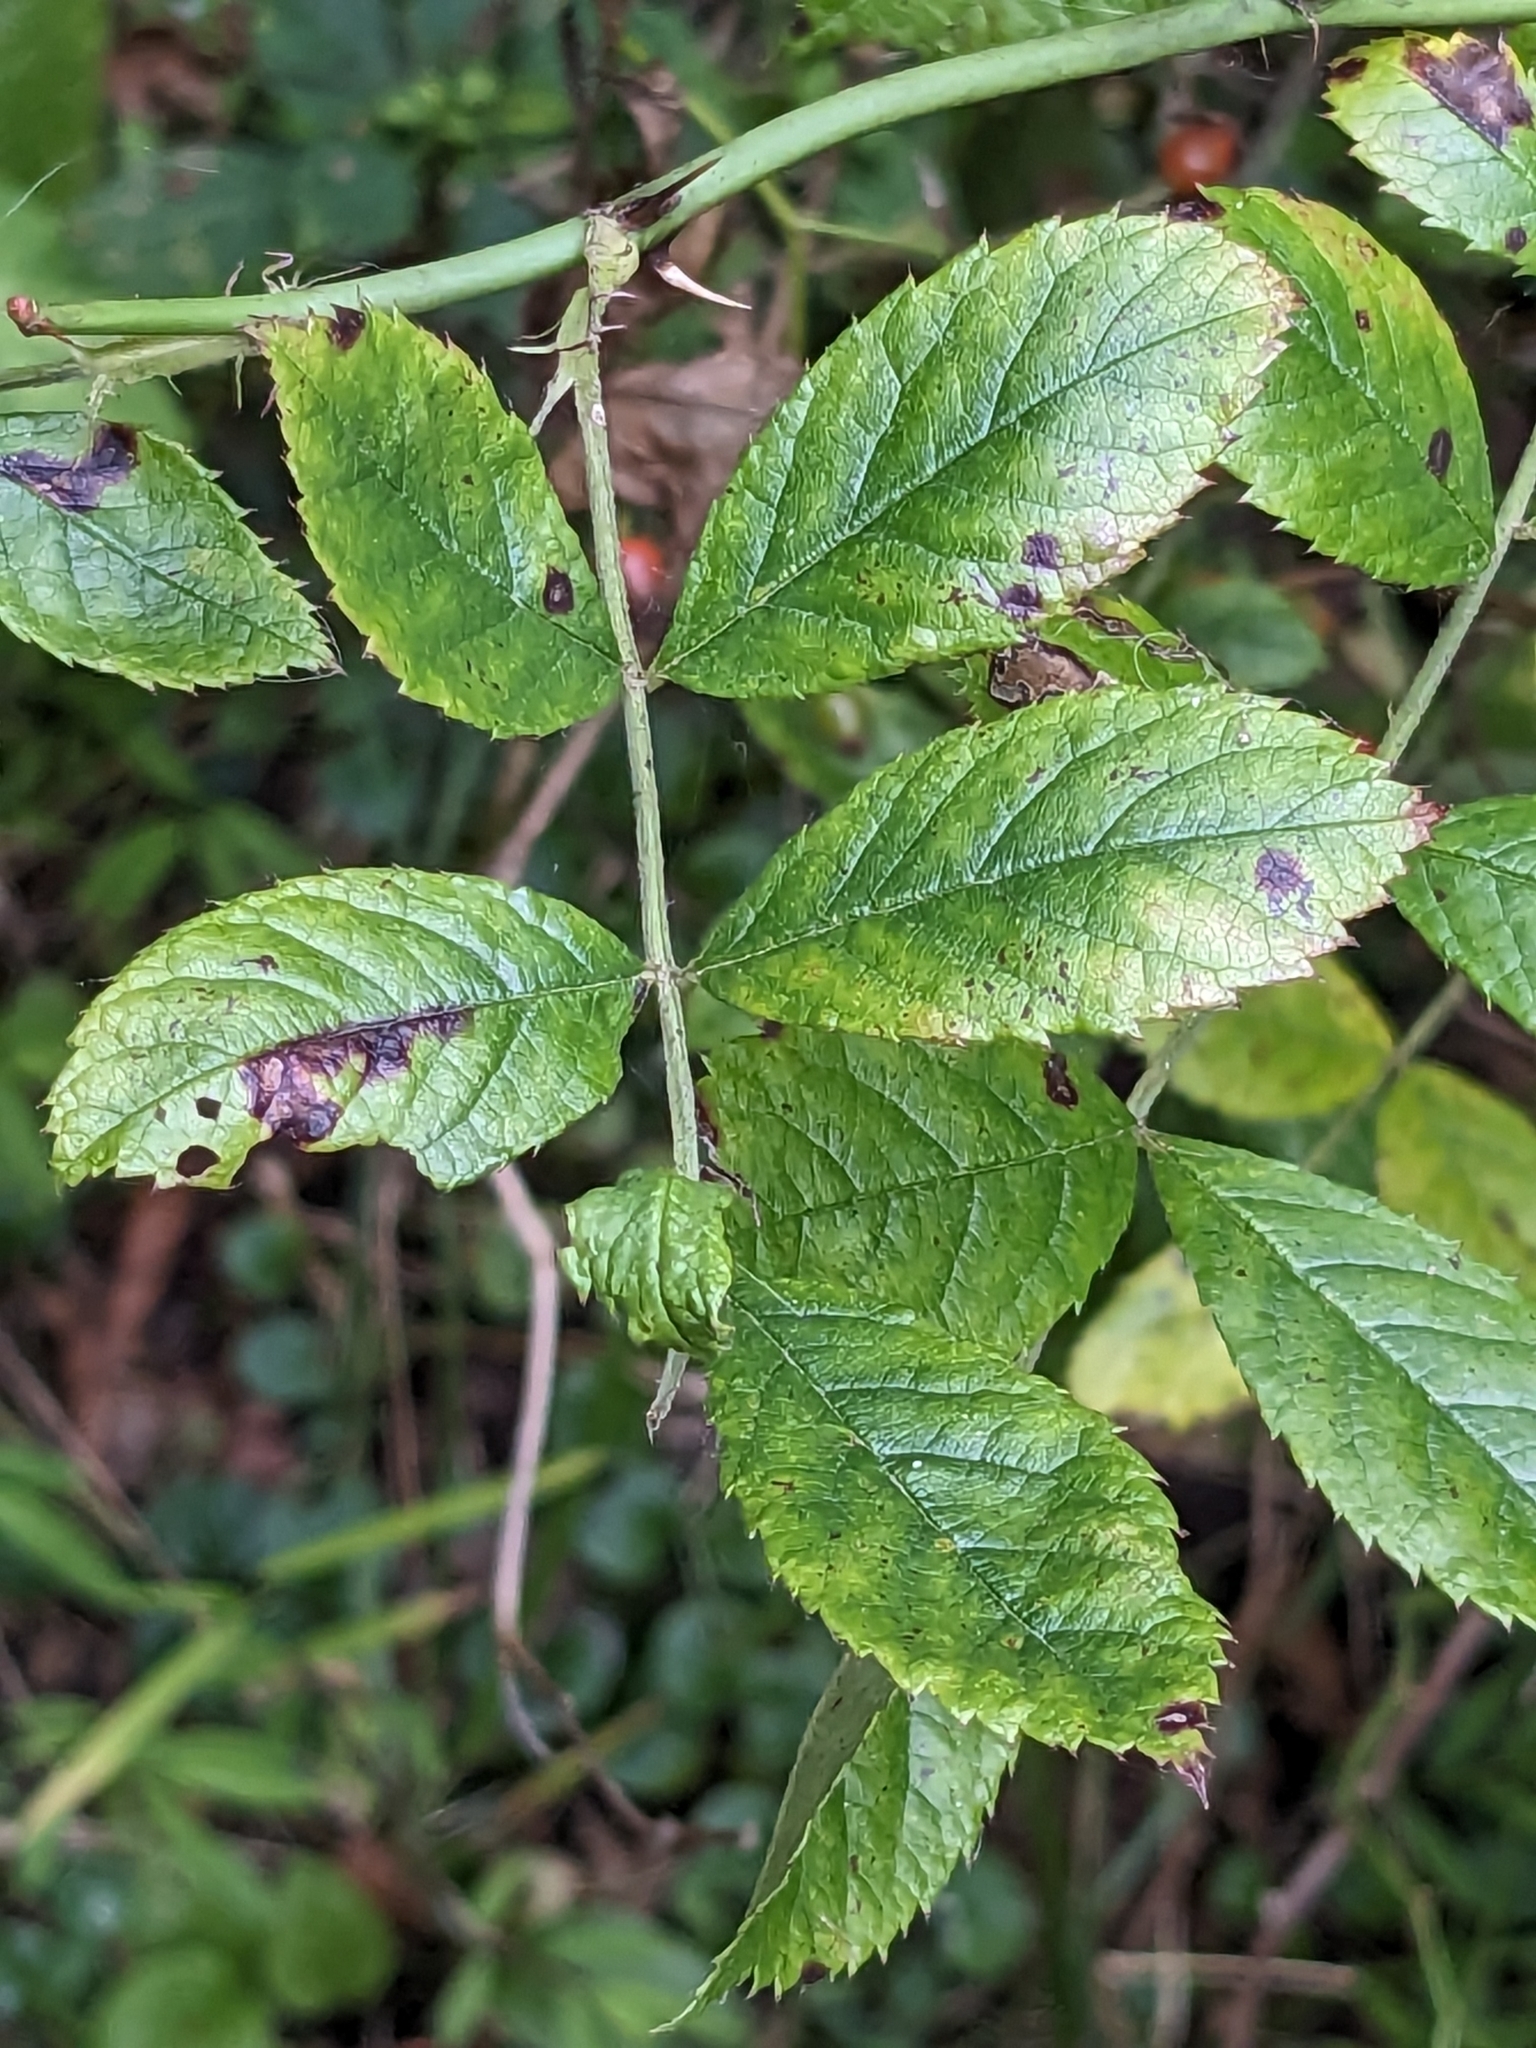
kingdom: Plantae
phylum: Tracheophyta
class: Magnoliopsida
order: Rosales
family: Rosaceae
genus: Rosa
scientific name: Rosa multiflora
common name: Multiflora rose
